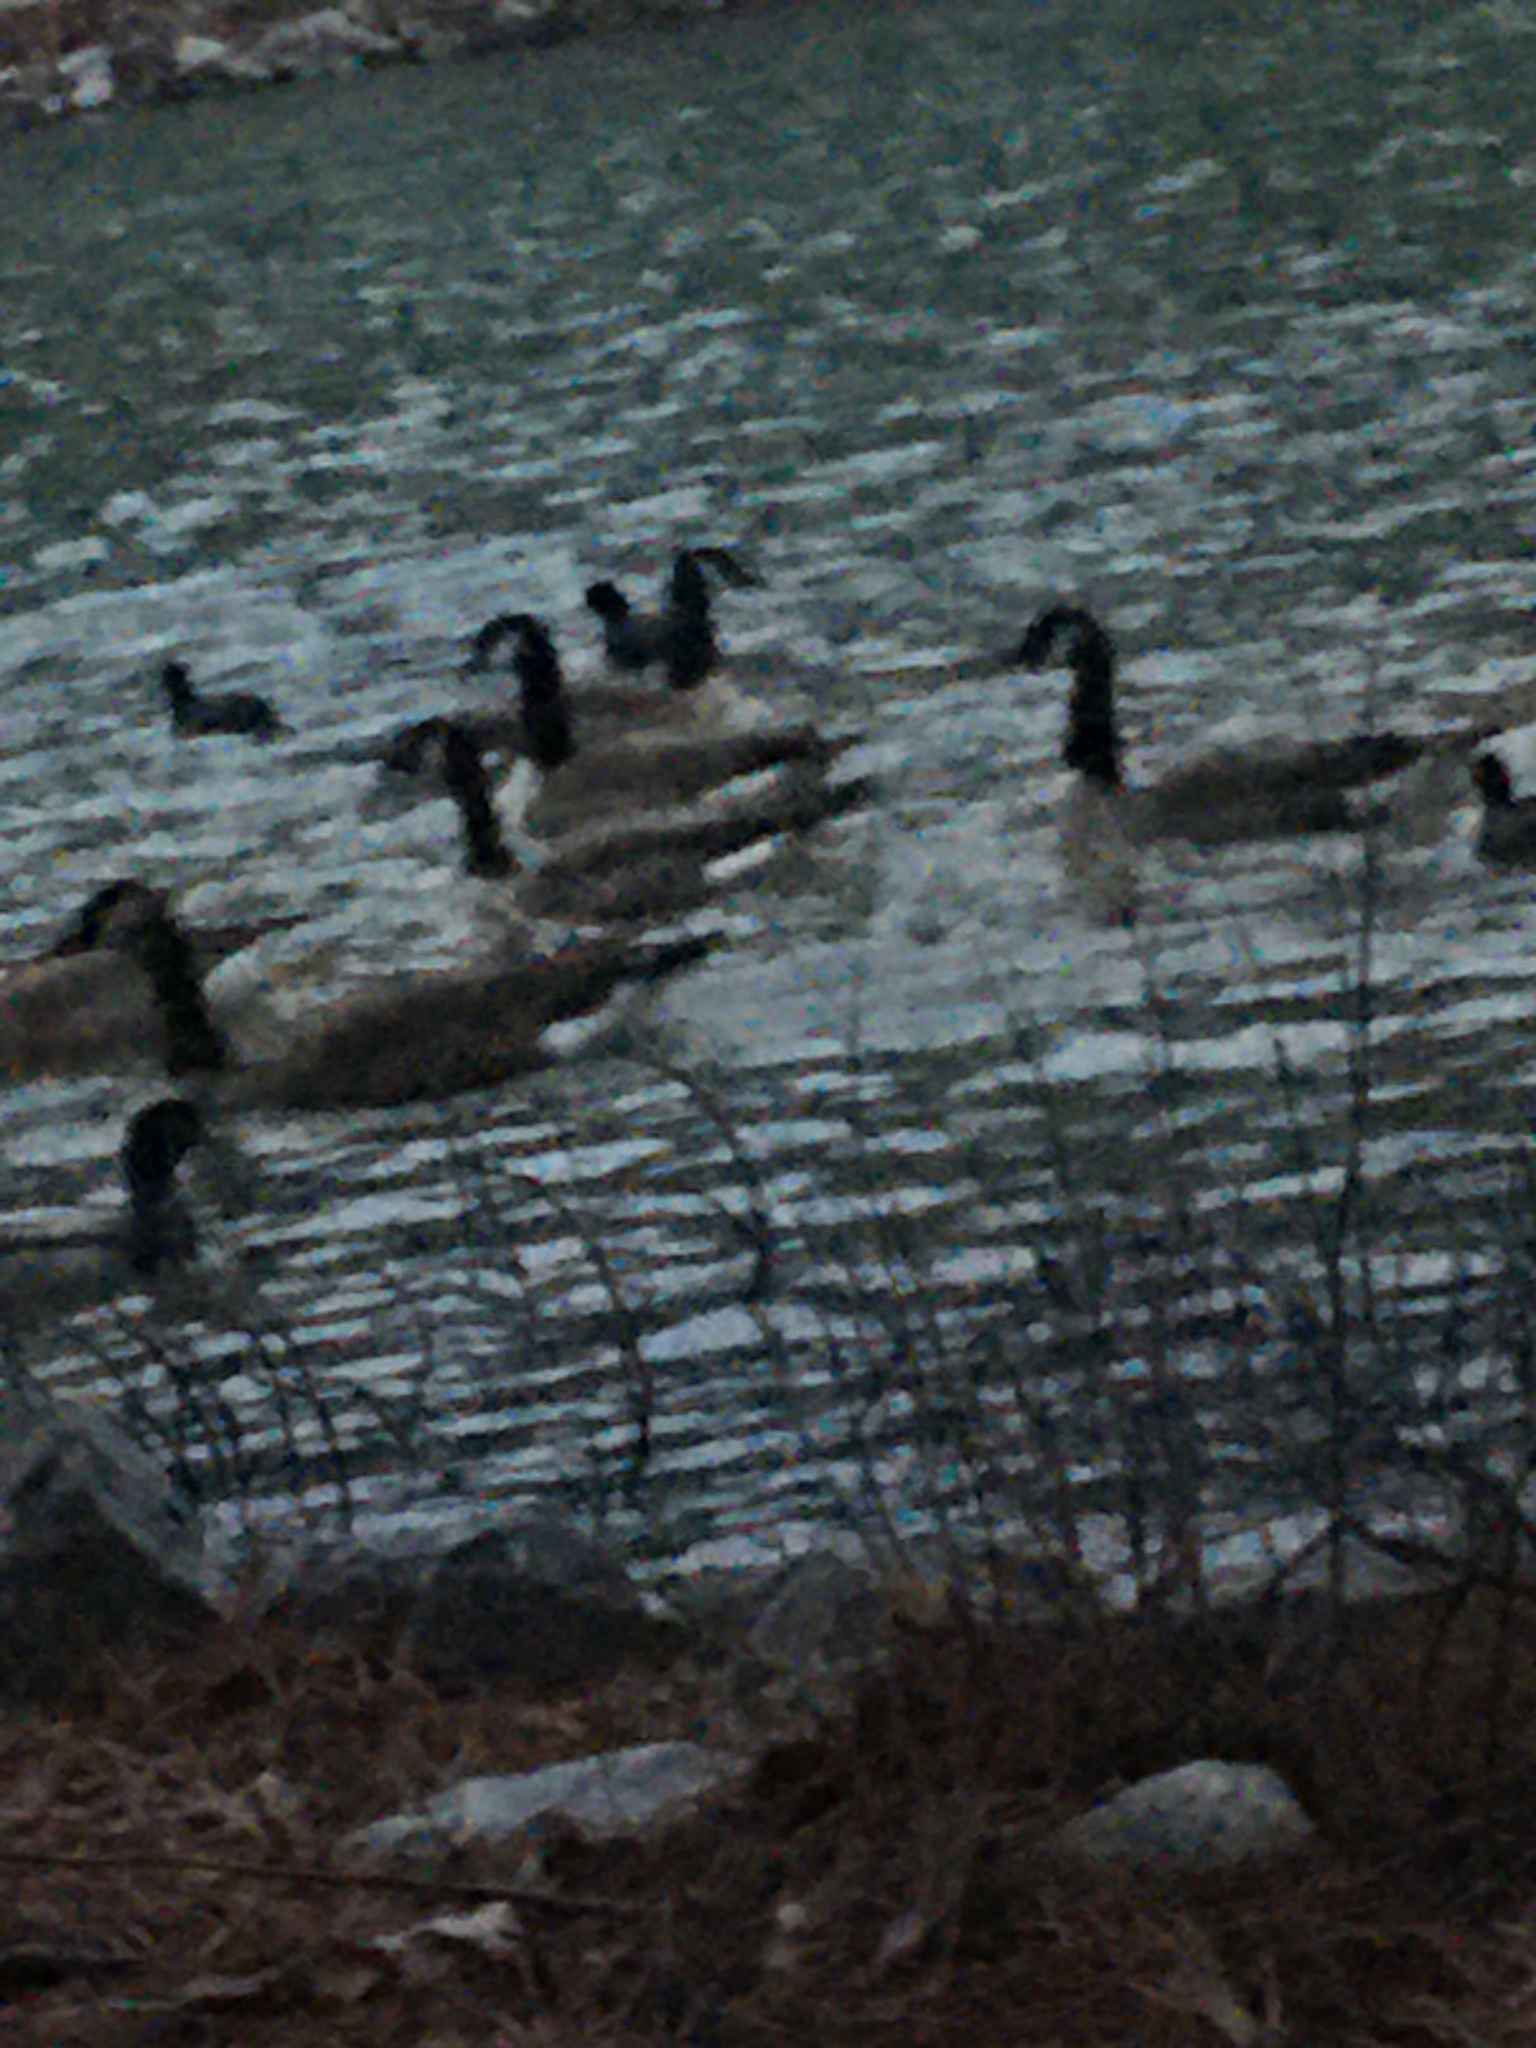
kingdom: Animalia
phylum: Chordata
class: Aves
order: Anseriformes
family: Anatidae
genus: Branta
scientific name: Branta canadensis
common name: Canada goose
